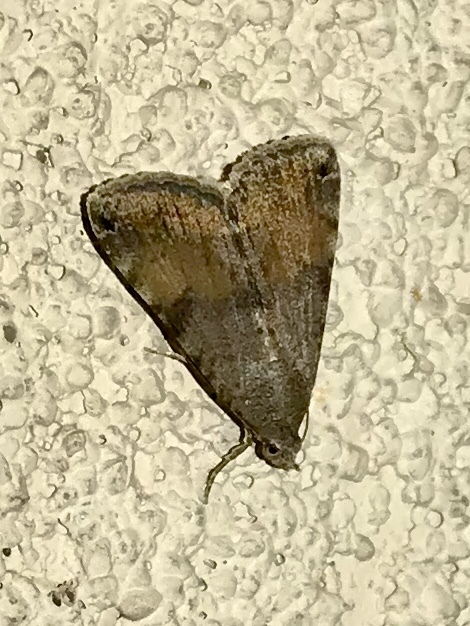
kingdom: Animalia
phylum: Arthropoda
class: Insecta
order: Lepidoptera
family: Erebidae
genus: Bulia
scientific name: Bulia deducta
